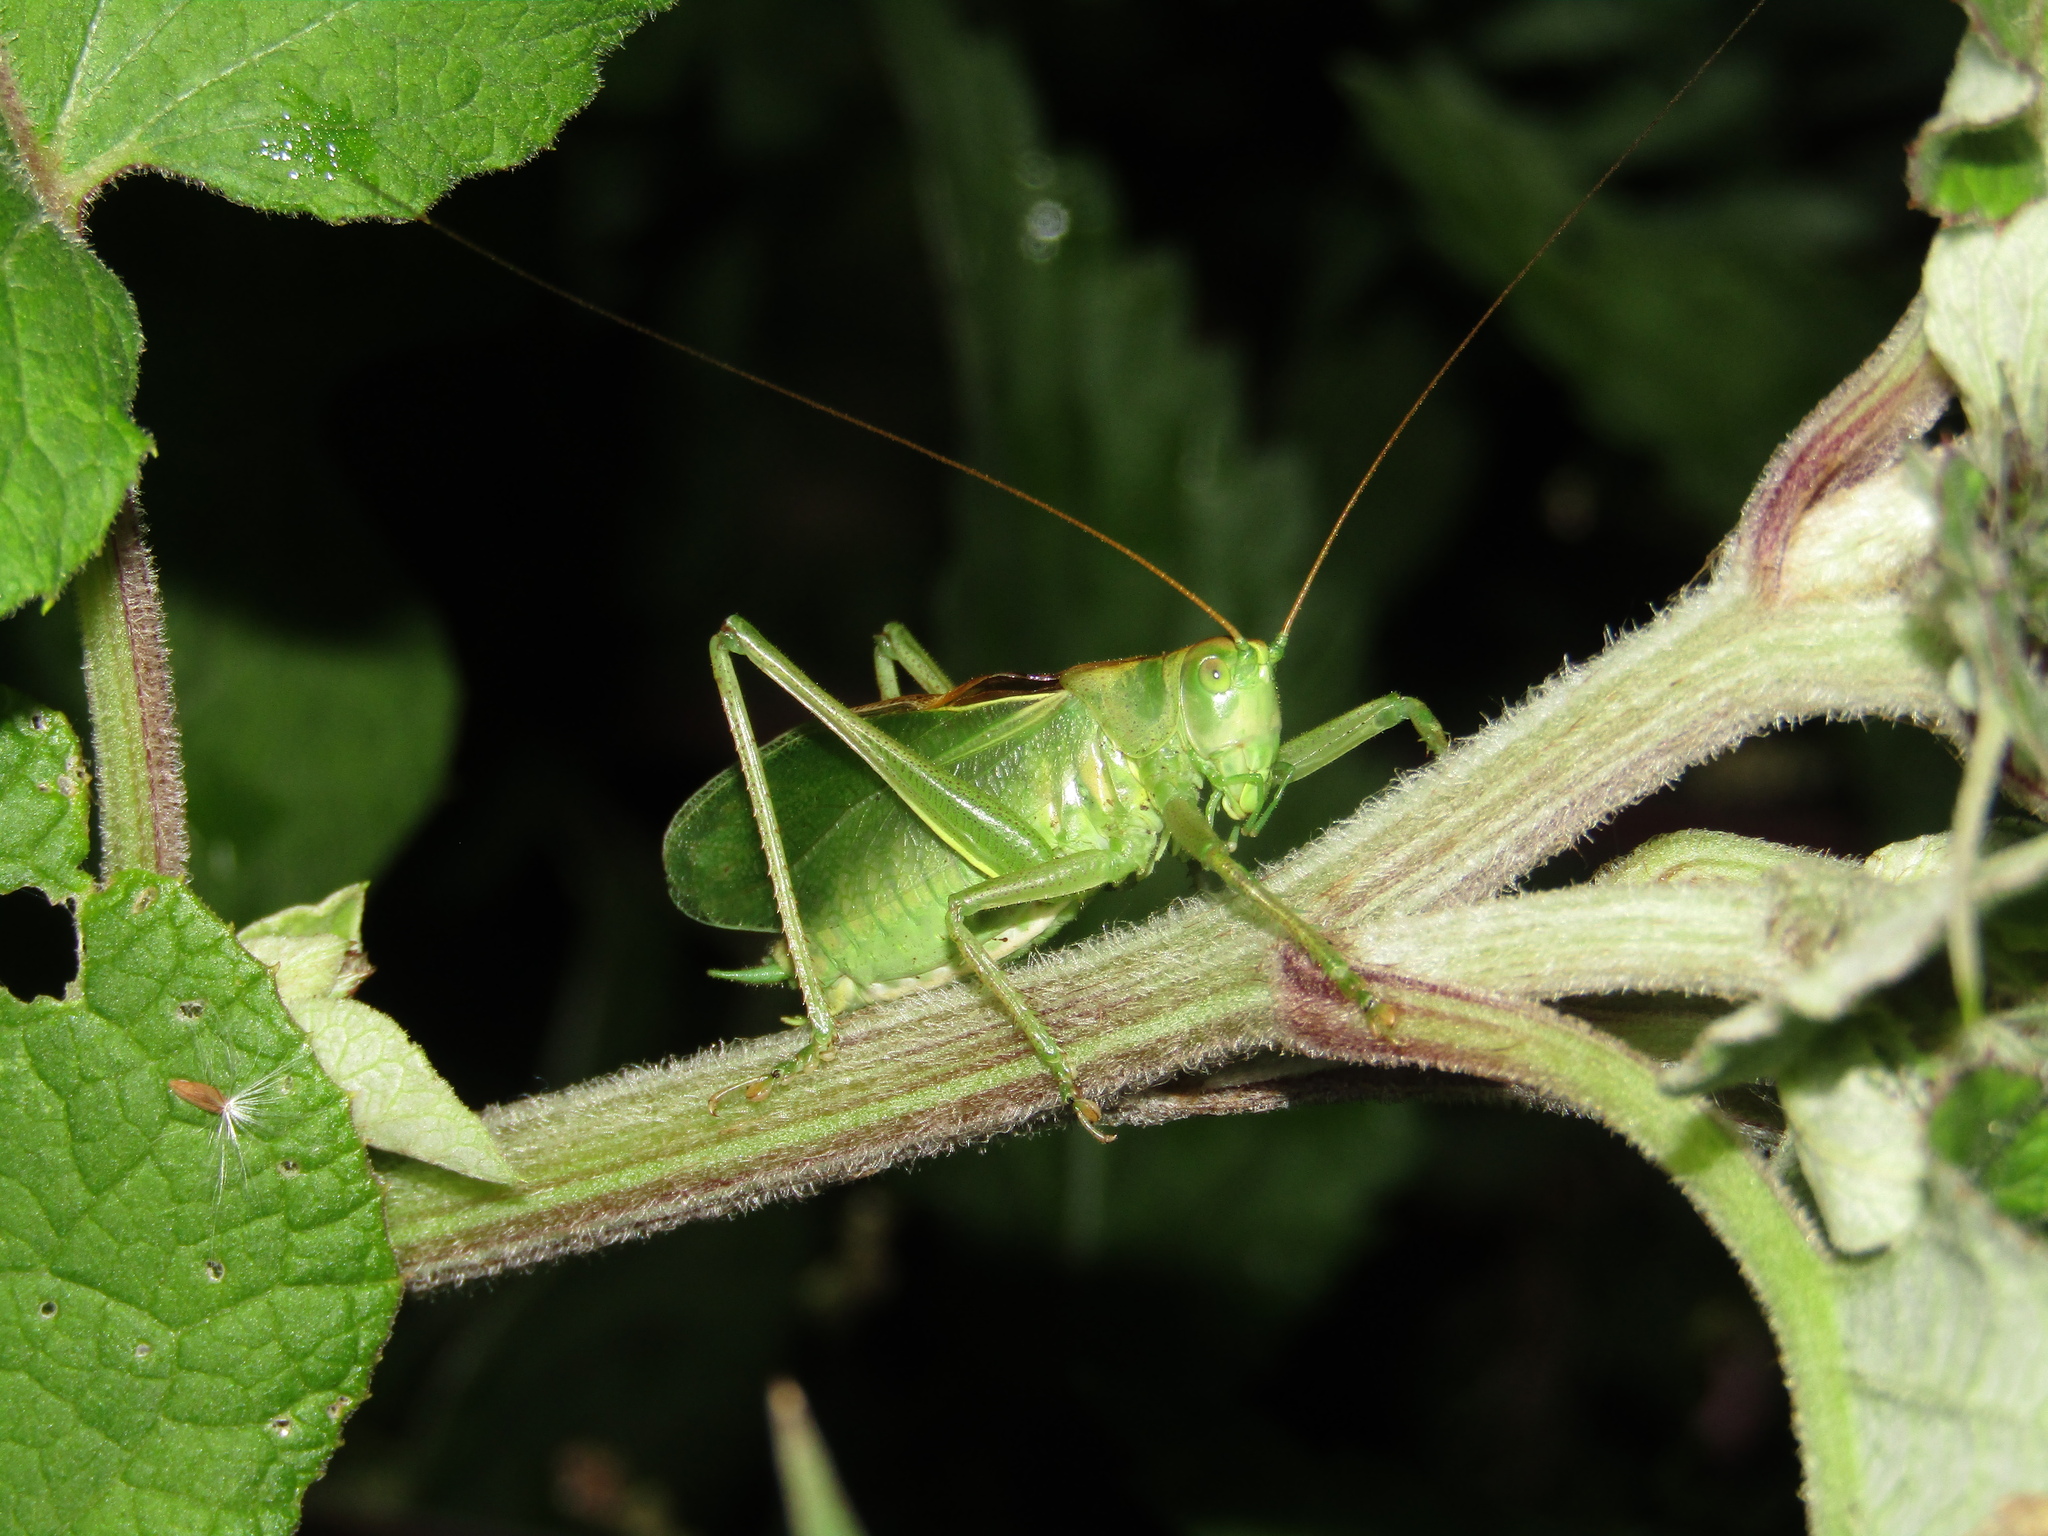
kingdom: Animalia
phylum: Arthropoda
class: Insecta
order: Orthoptera
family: Tettigoniidae
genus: Tettigonia
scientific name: Tettigonia cantans
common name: Upland green bush-cricket
